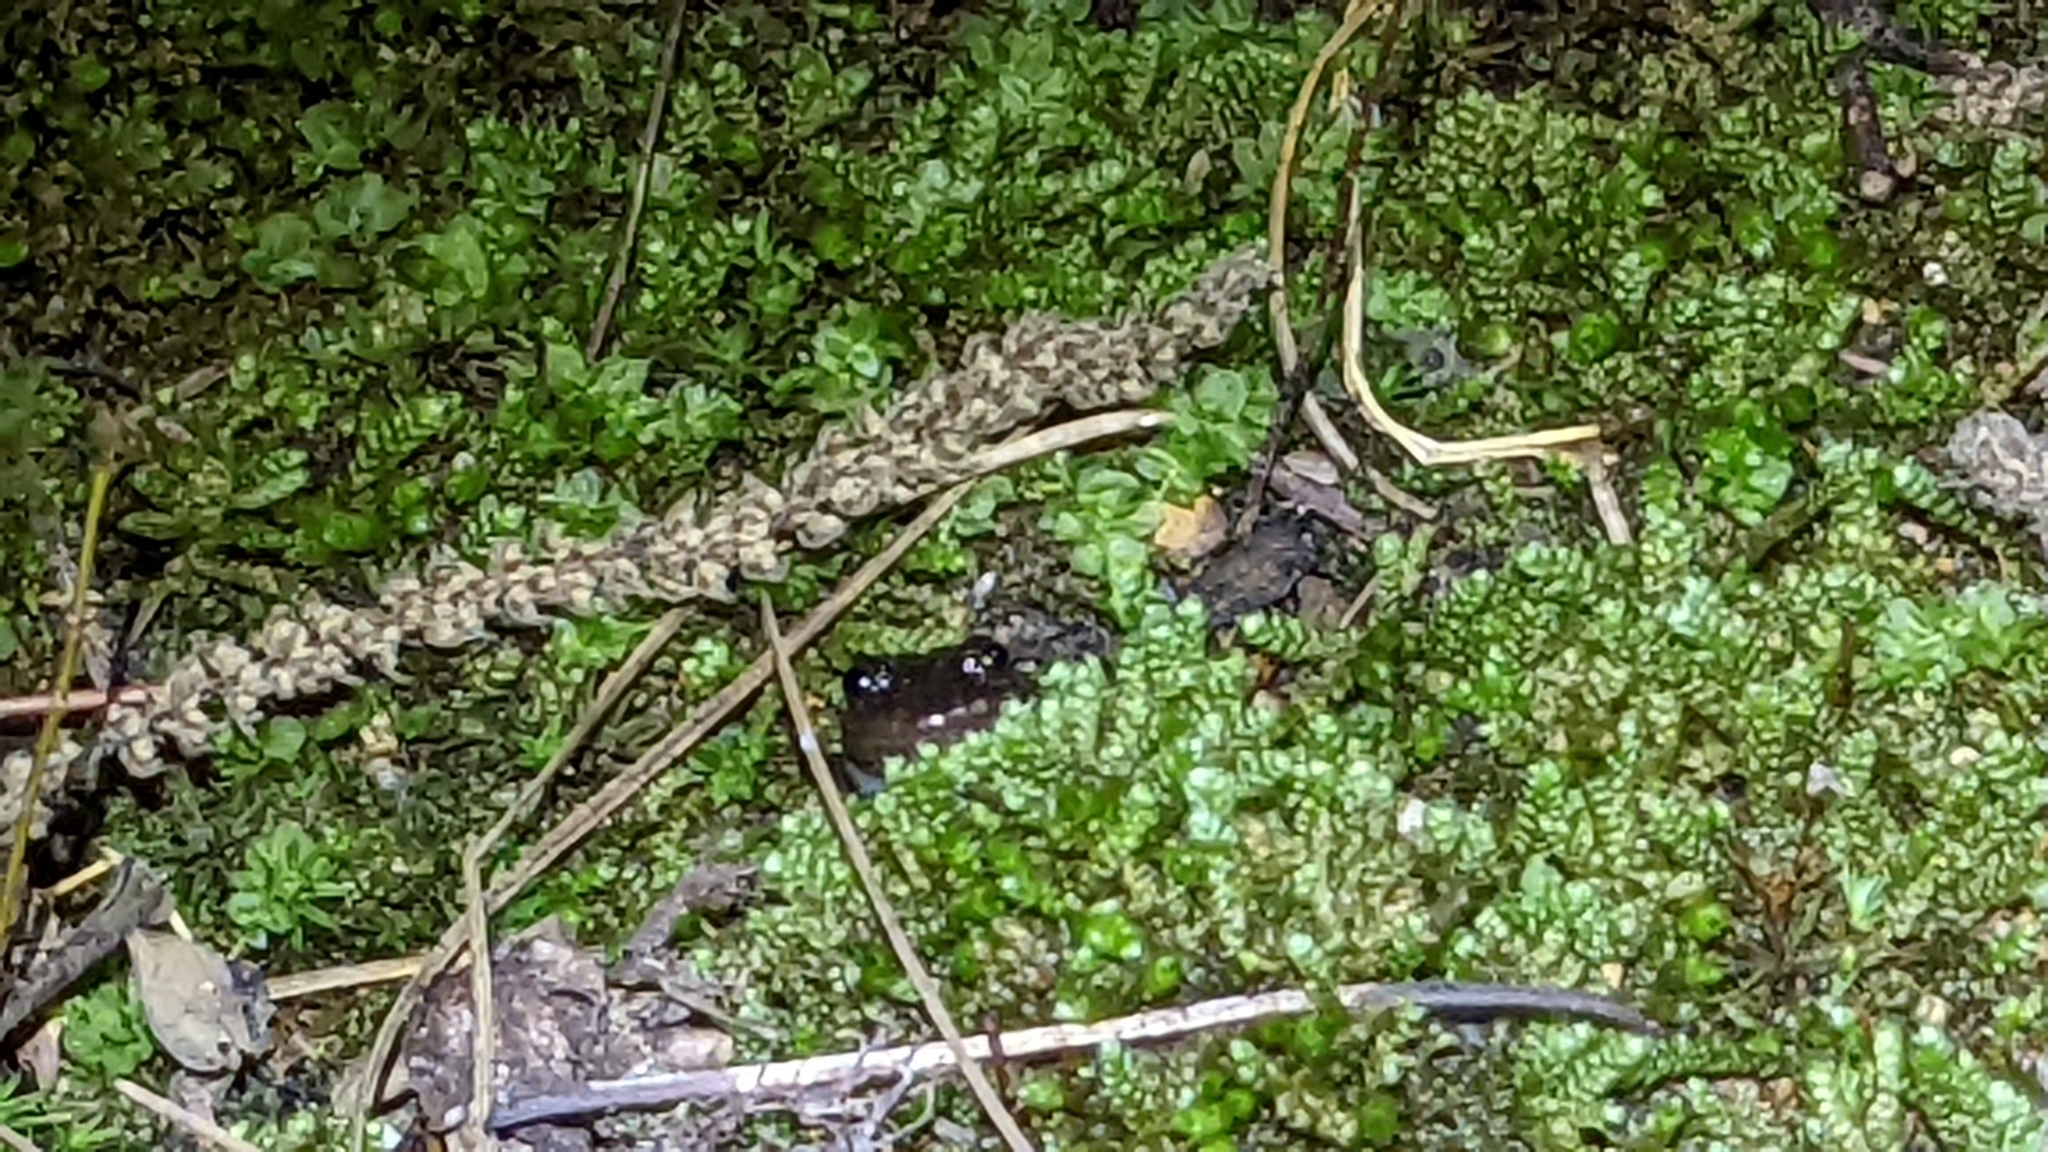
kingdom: Animalia
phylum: Chordata
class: Amphibia
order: Caudata
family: Plethodontidae
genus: Desmognathus
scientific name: Desmognathus brimleyorum
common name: Ouachita dusky salamander
